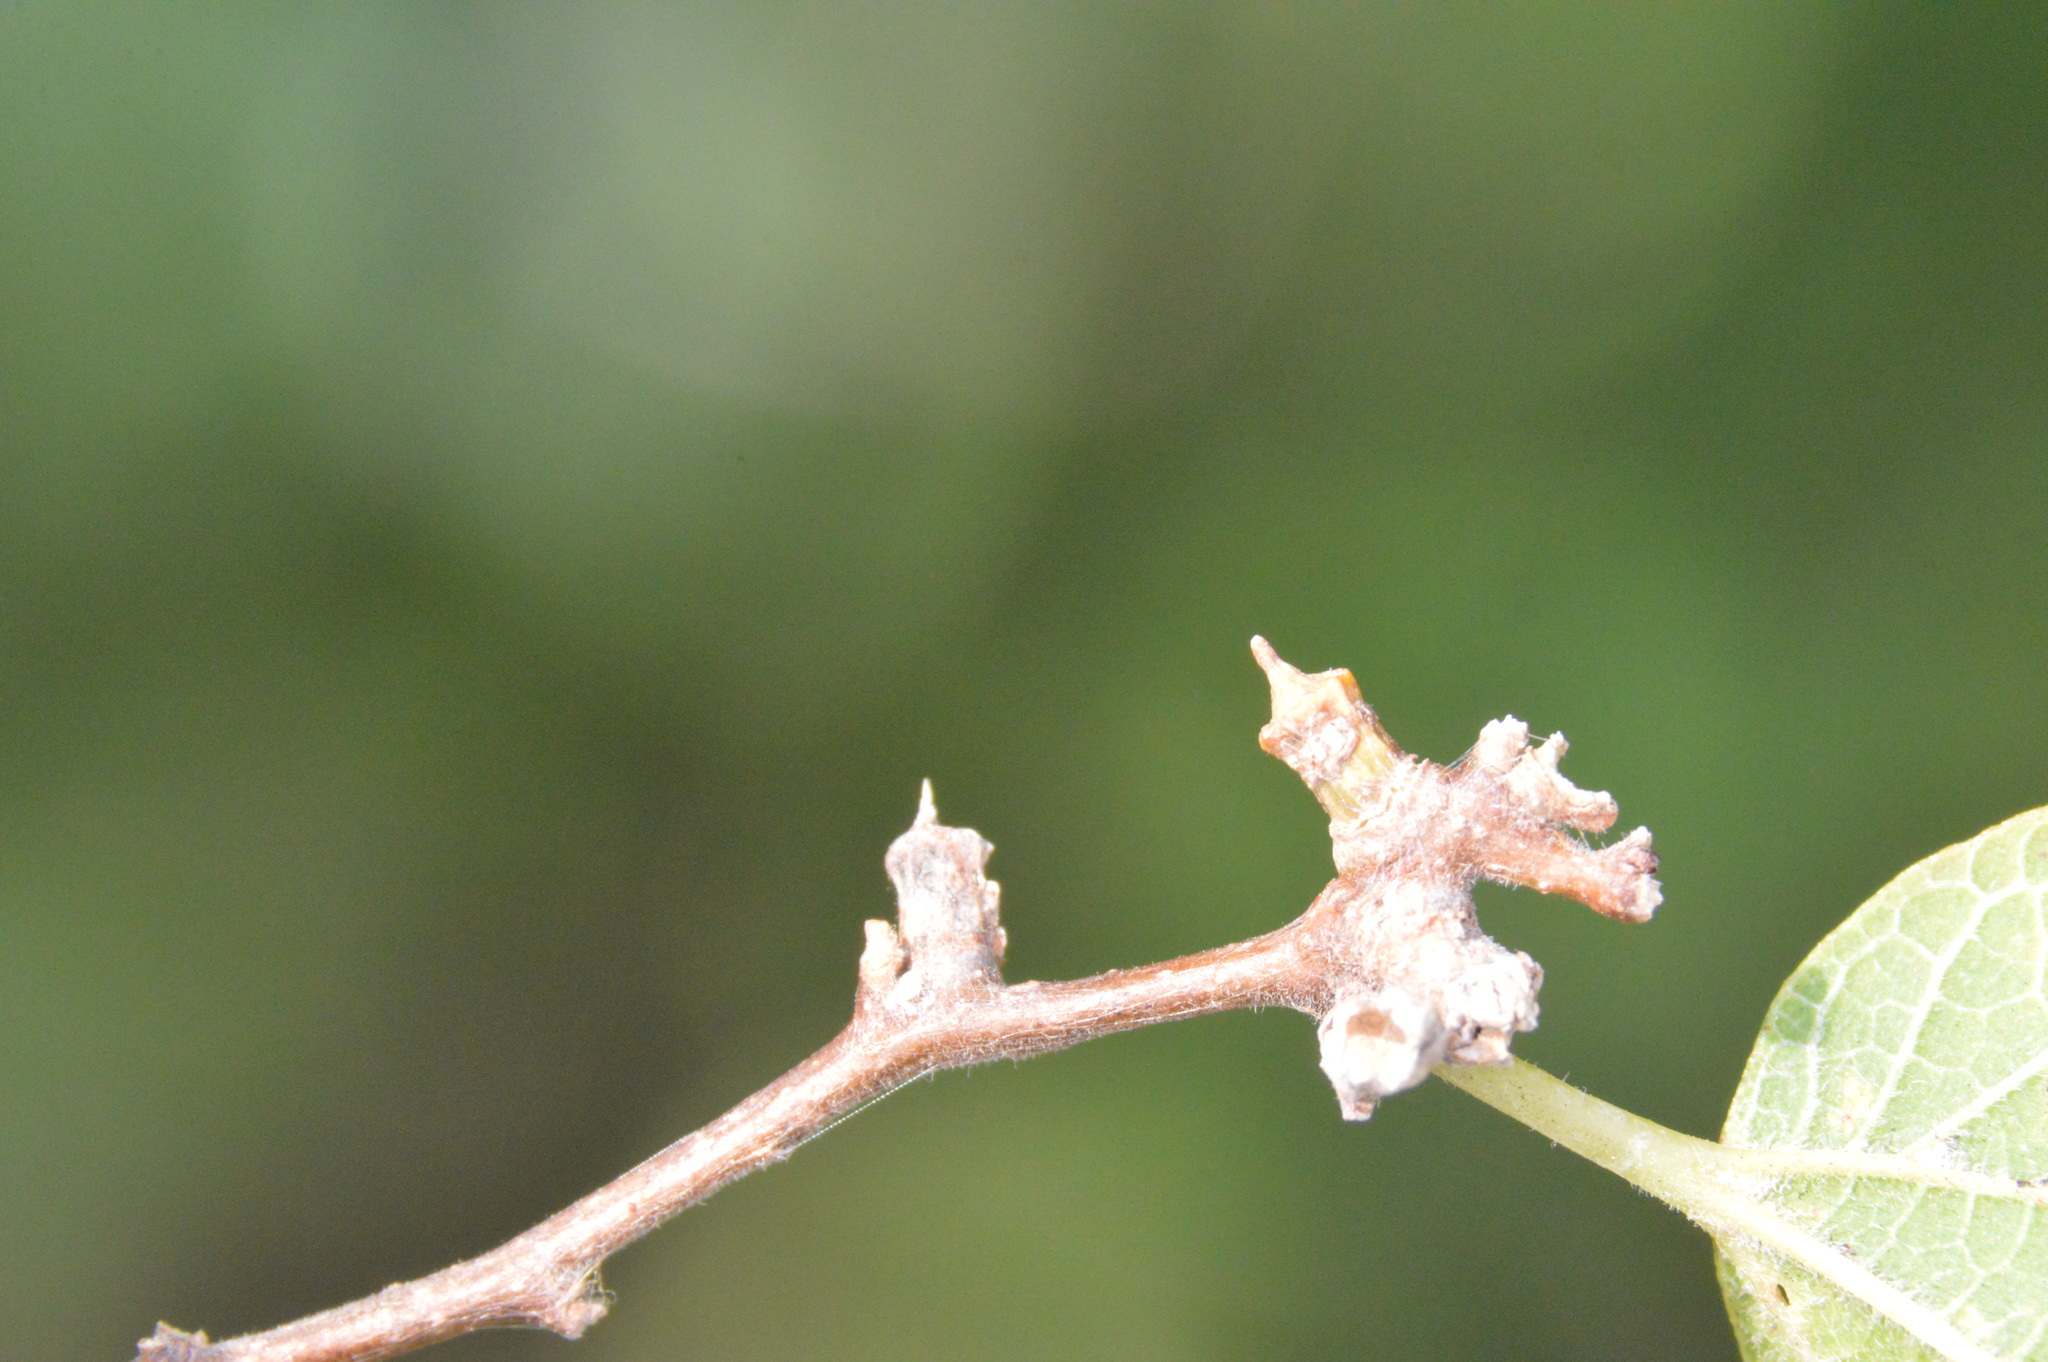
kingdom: Animalia
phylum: Arthropoda
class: Insecta
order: Diptera
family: Cecidomyiidae
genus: Celticecis
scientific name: Celticecis ramicola
